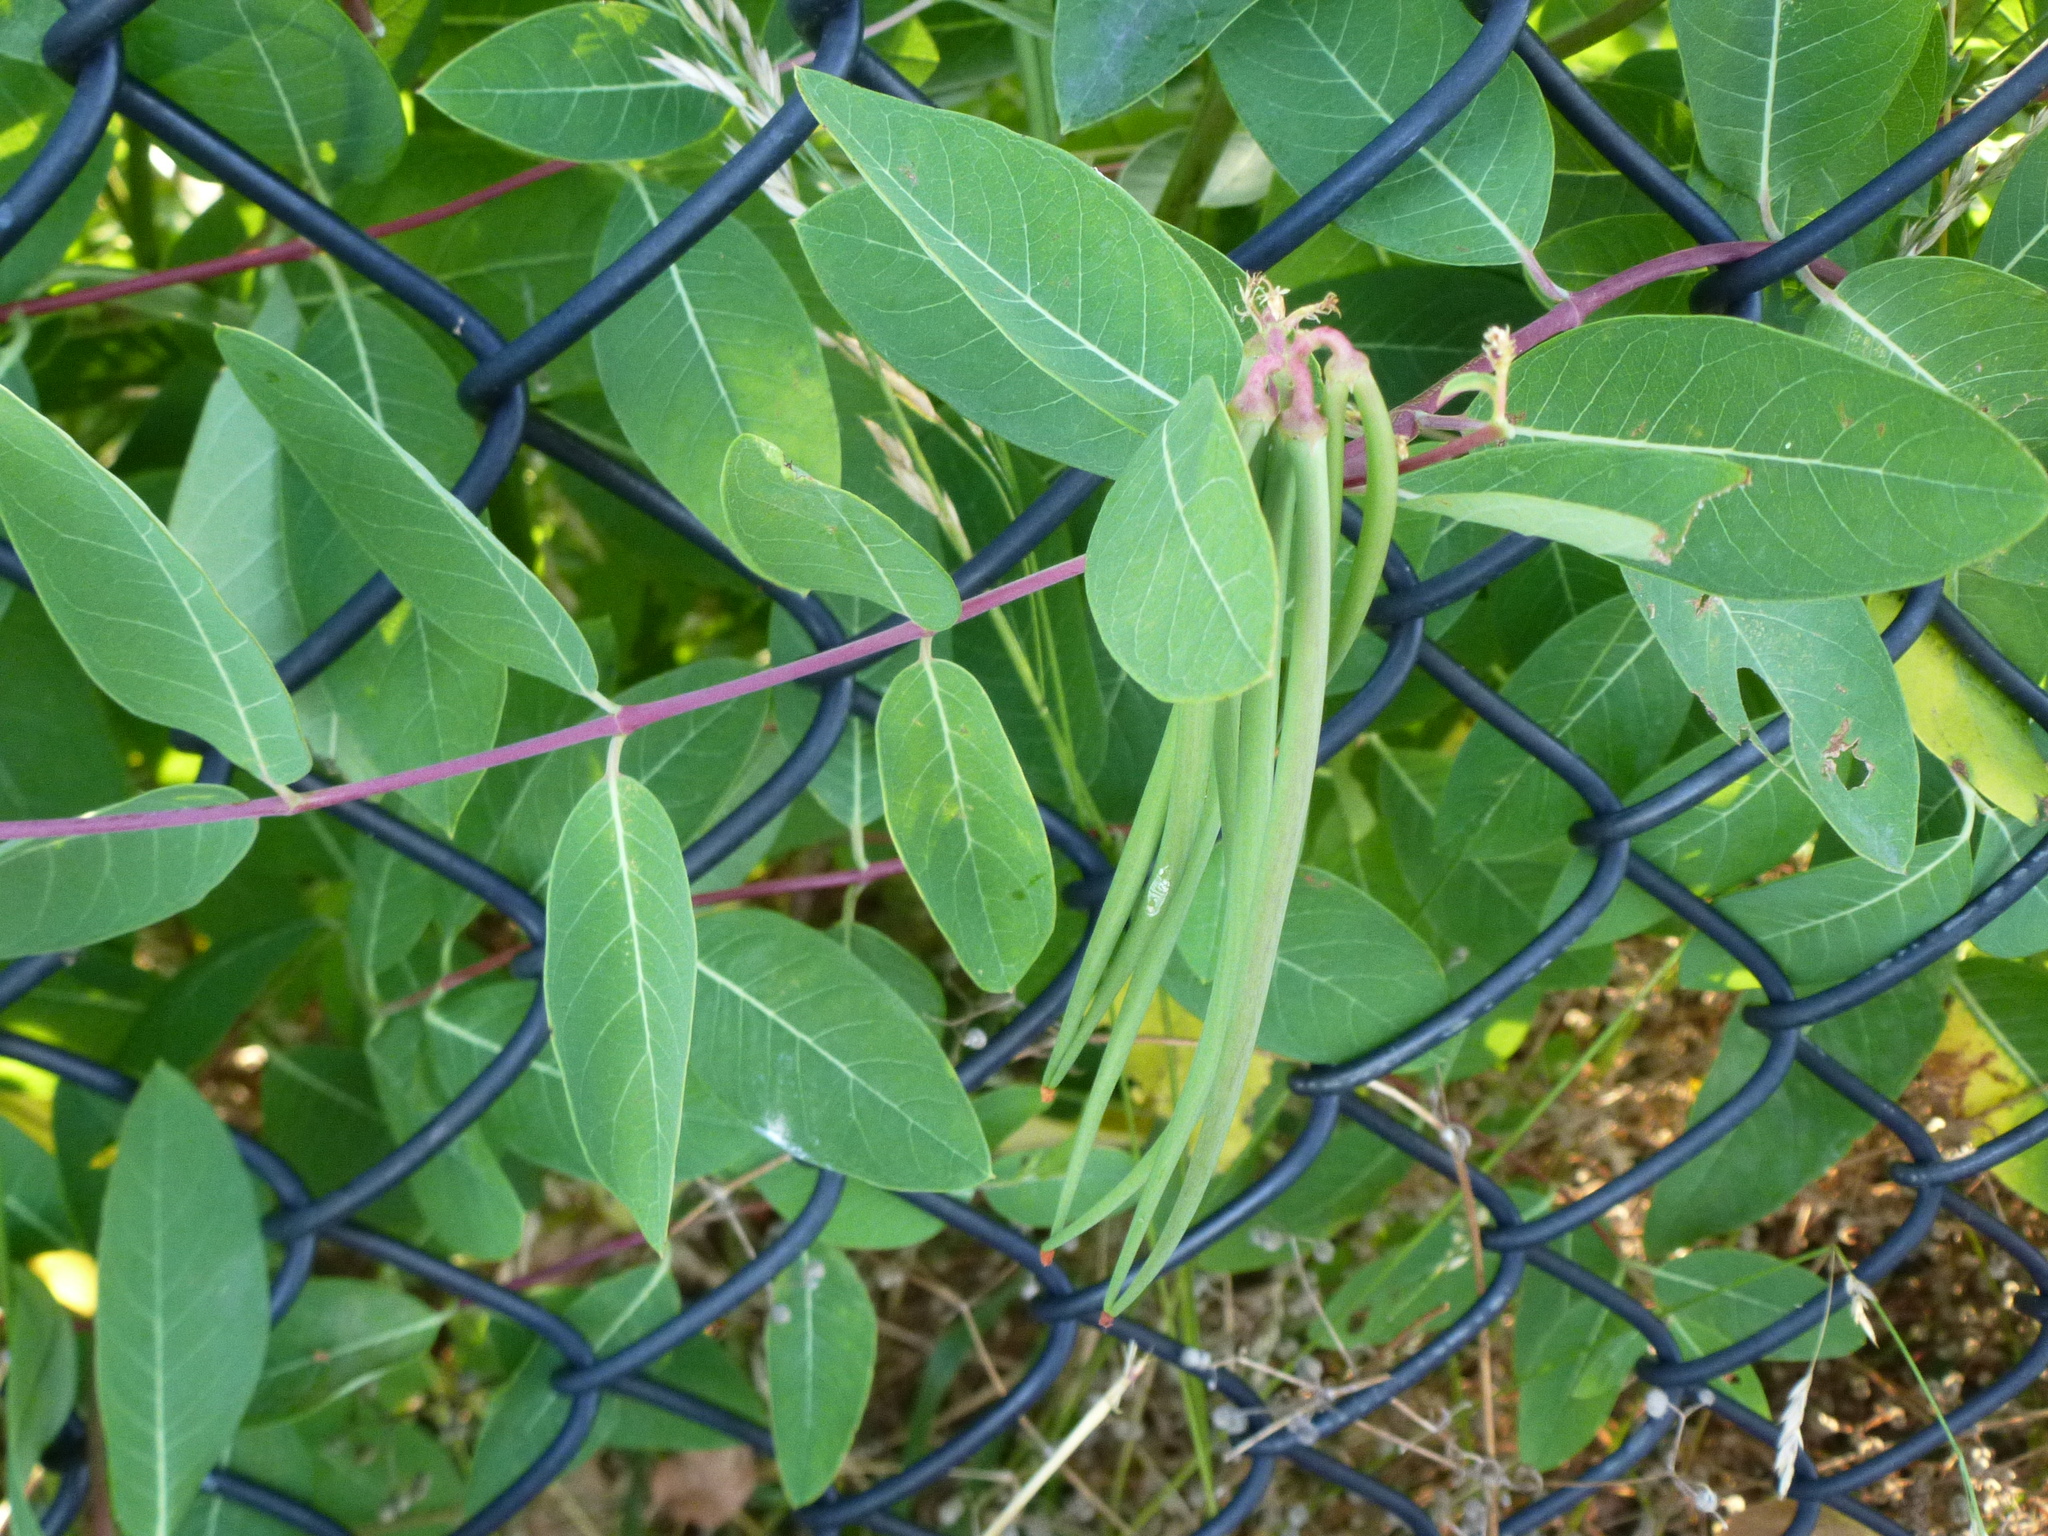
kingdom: Plantae
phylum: Tracheophyta
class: Magnoliopsida
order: Gentianales
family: Apocynaceae
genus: Apocynum
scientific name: Apocynum cannabinum
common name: Hemp dogbane
